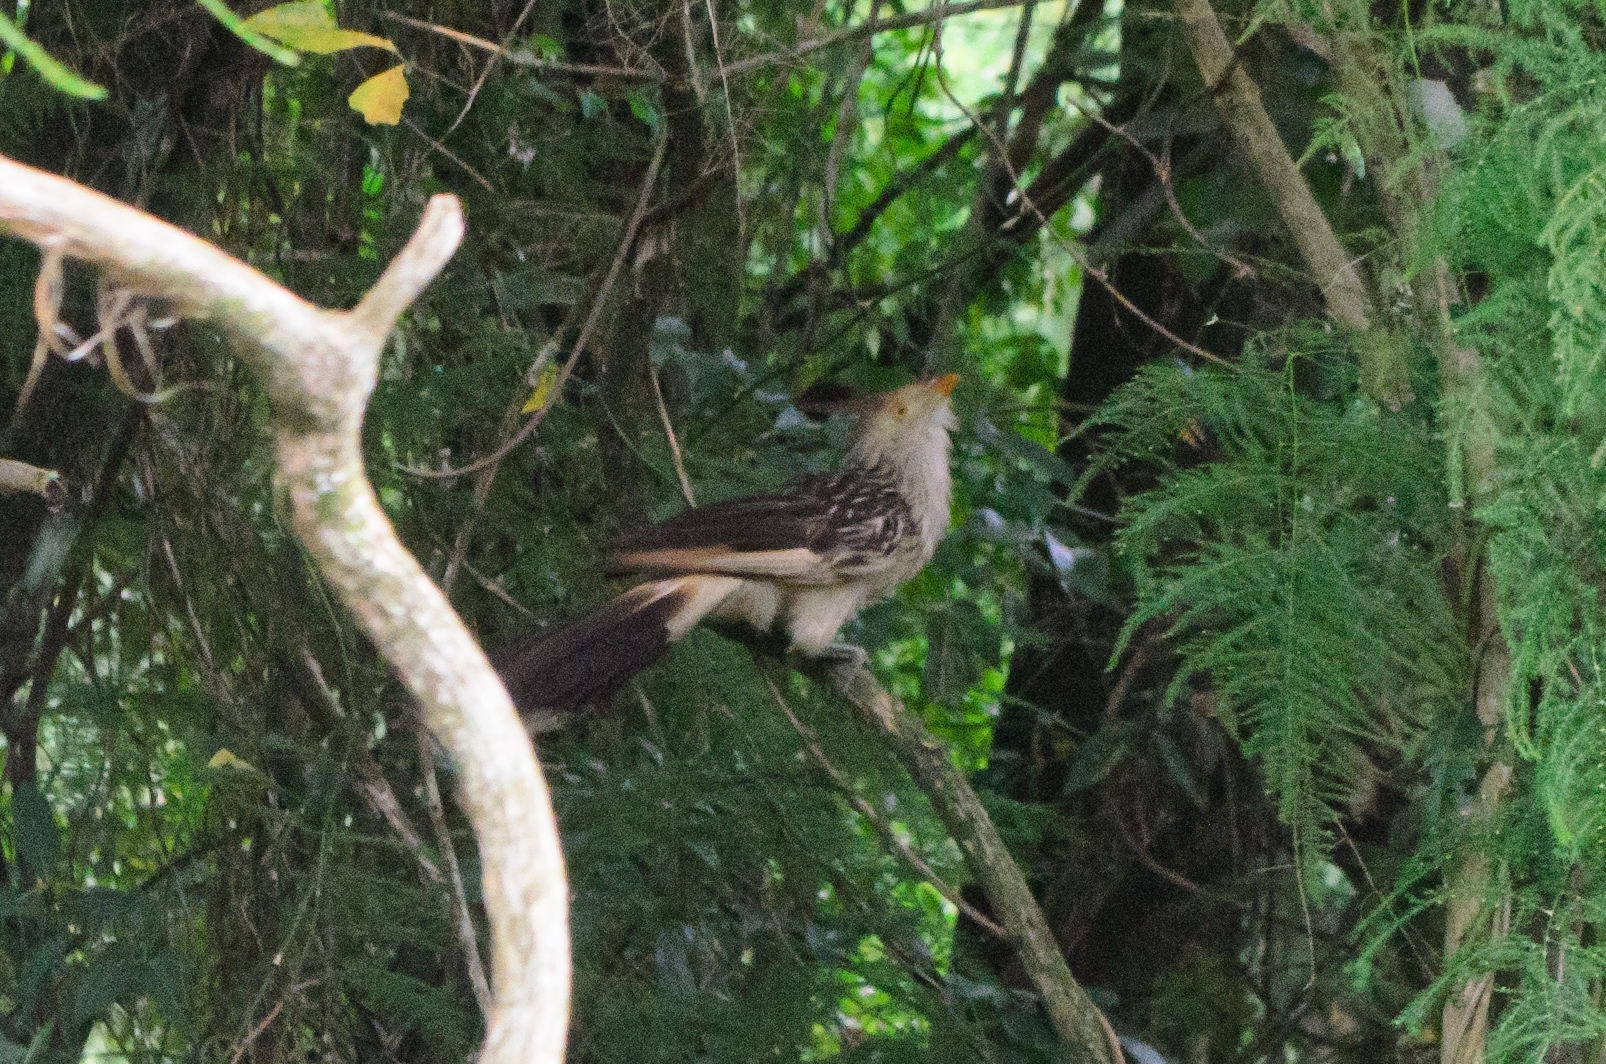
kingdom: Animalia
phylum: Chordata
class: Aves
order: Cuculiformes
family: Cuculidae
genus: Guira
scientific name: Guira guira
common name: Guira cuckoo
